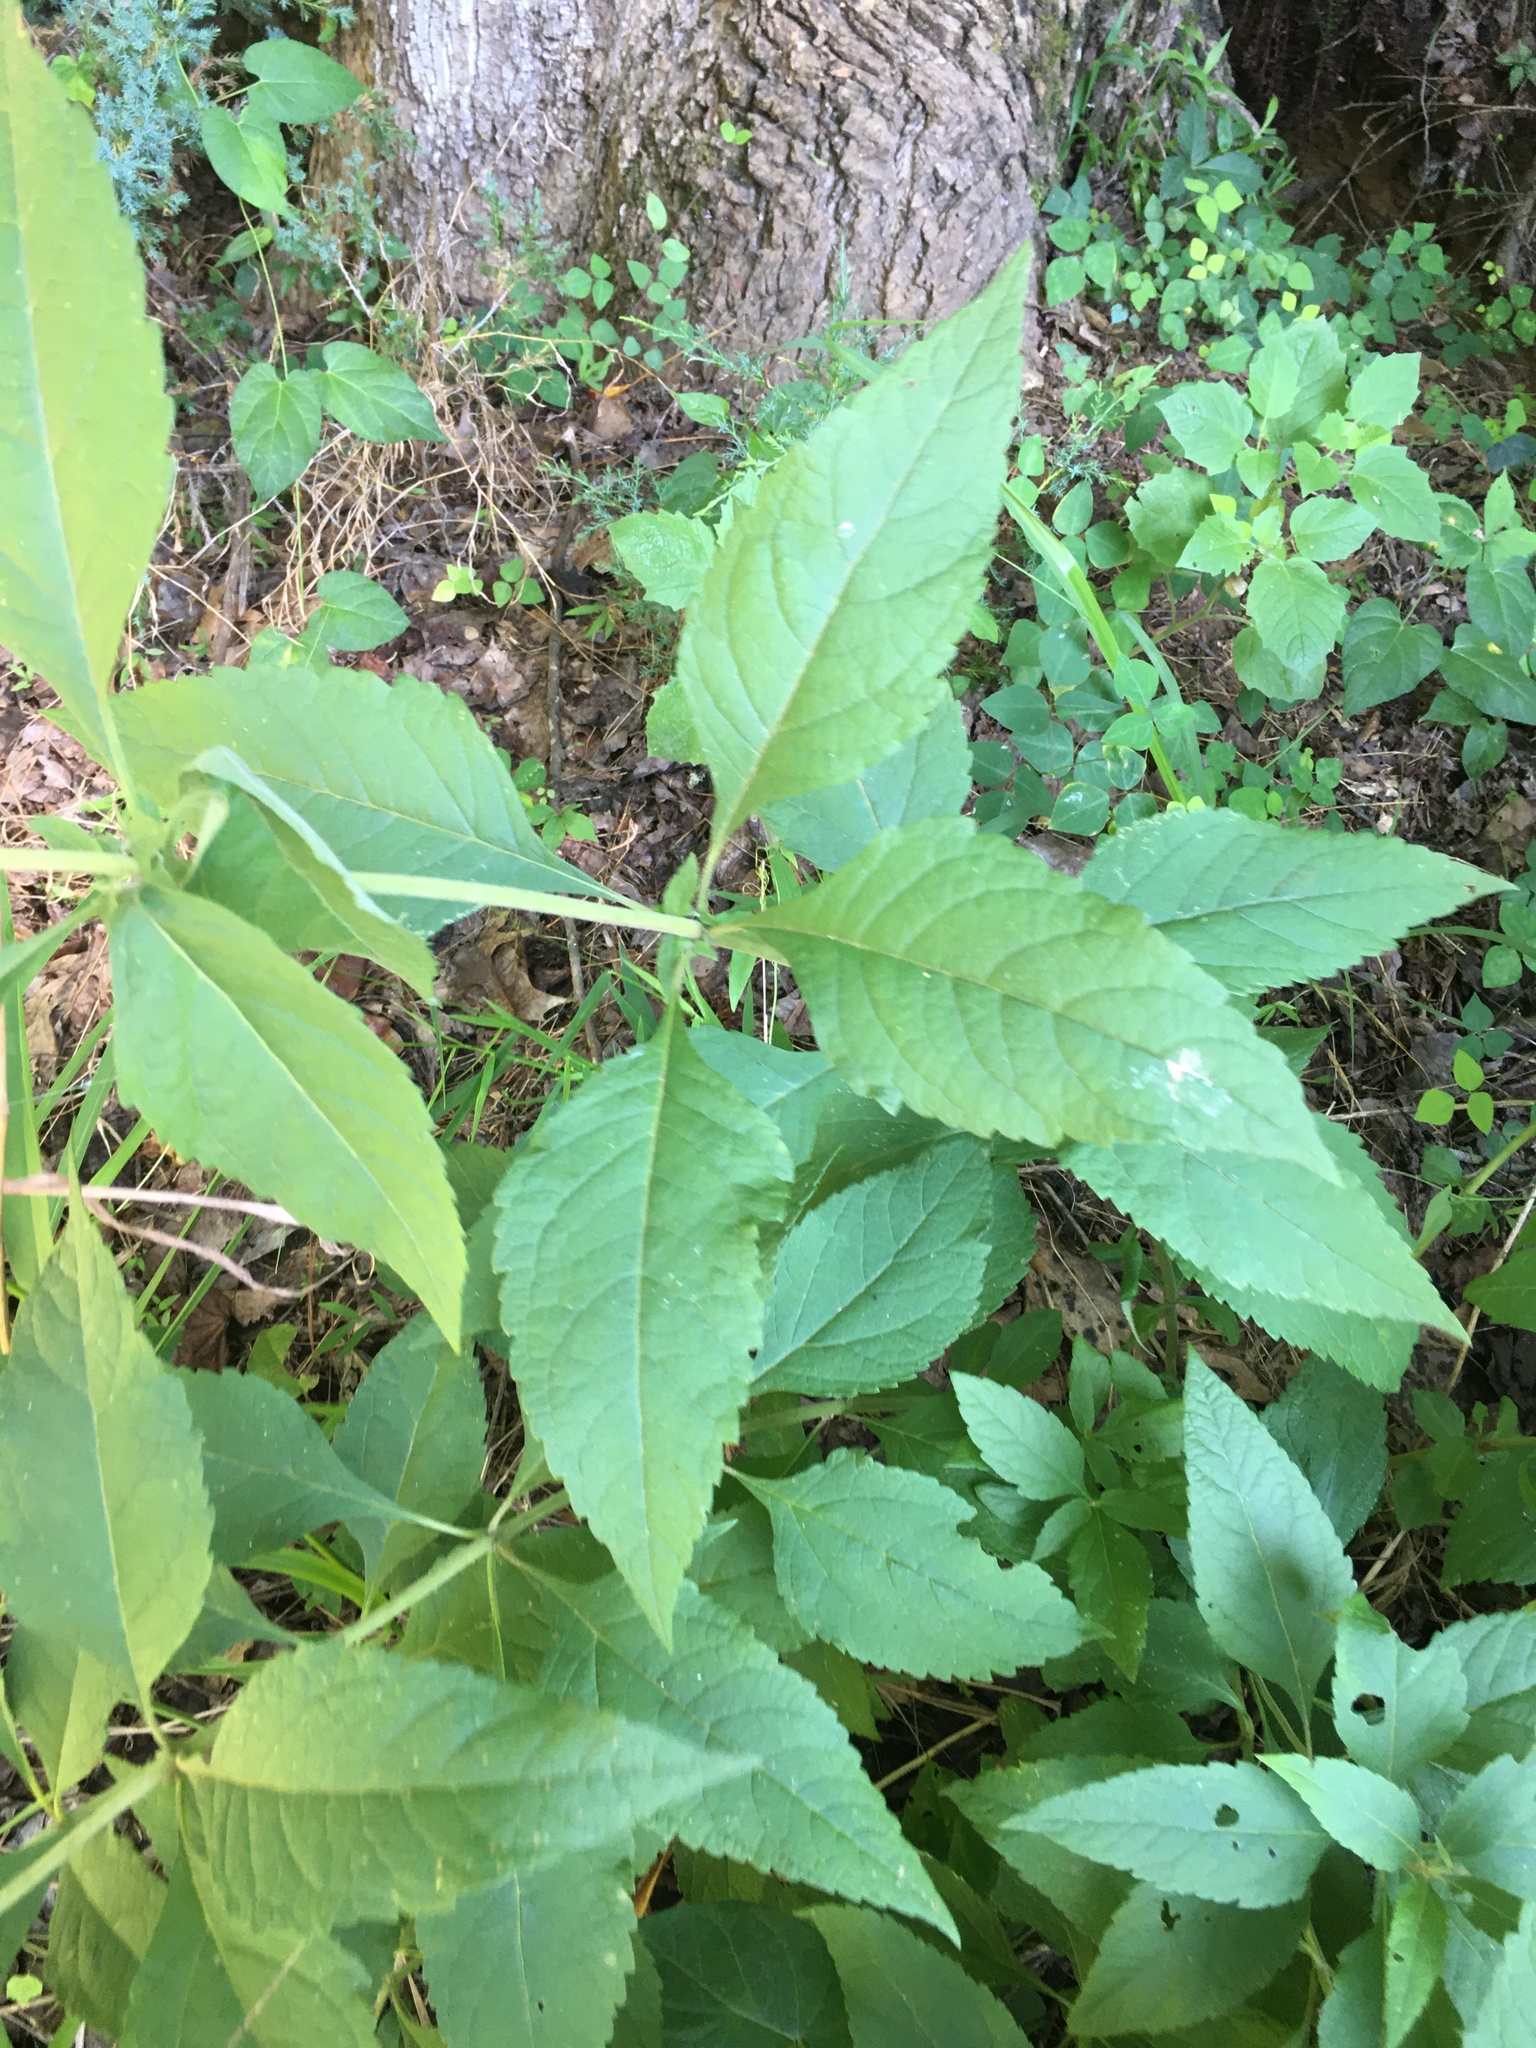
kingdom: Plantae
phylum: Tracheophyta
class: Magnoliopsida
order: Asterales
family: Asteraceae
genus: Eutrochium
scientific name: Eutrochium purpureum
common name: Gravelroot
